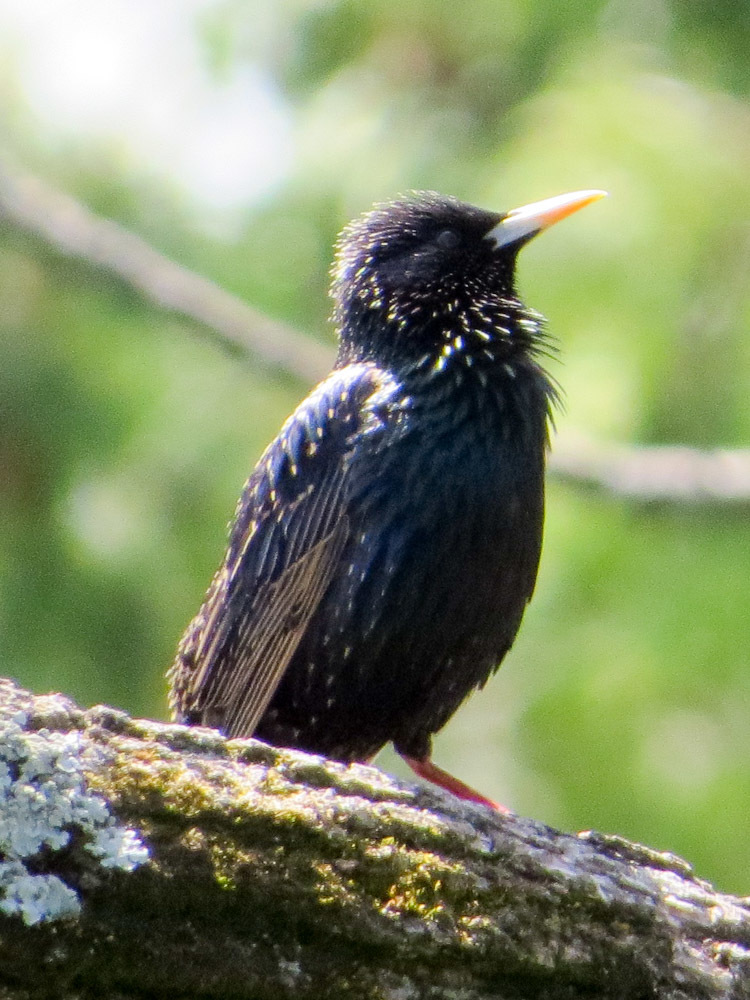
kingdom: Animalia
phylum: Chordata
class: Aves
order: Passeriformes
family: Sturnidae
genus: Sturnus
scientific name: Sturnus vulgaris
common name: Common starling
